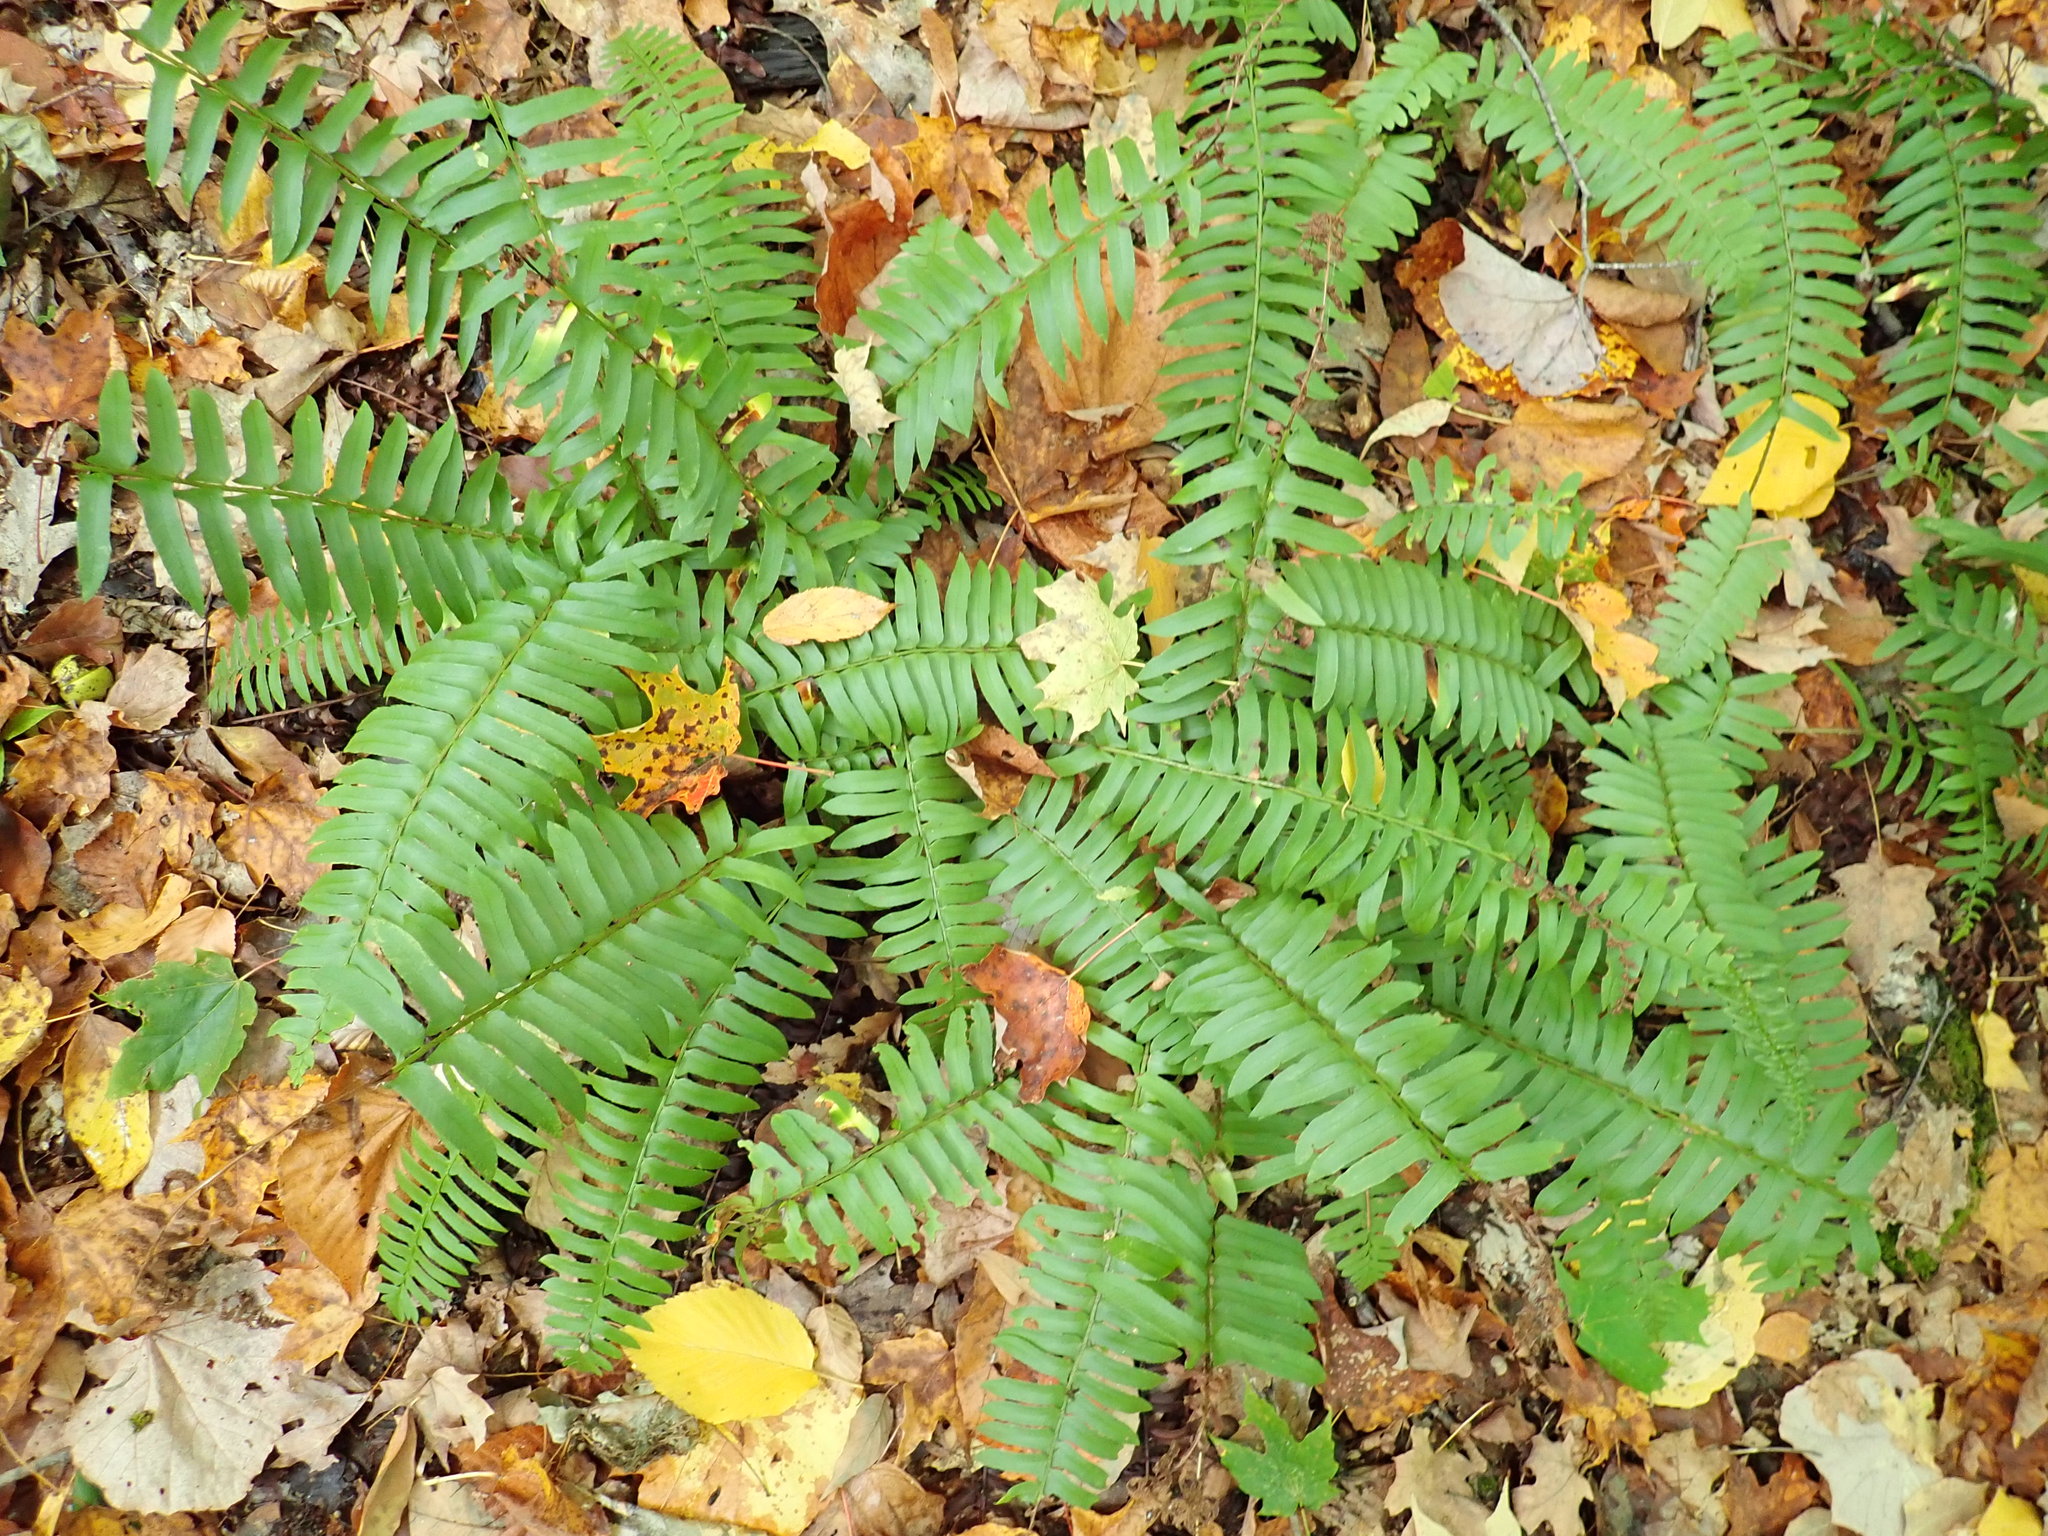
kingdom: Plantae
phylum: Tracheophyta
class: Polypodiopsida
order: Polypodiales
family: Dryopteridaceae
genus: Polystichum
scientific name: Polystichum acrostichoides
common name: Christmas fern
